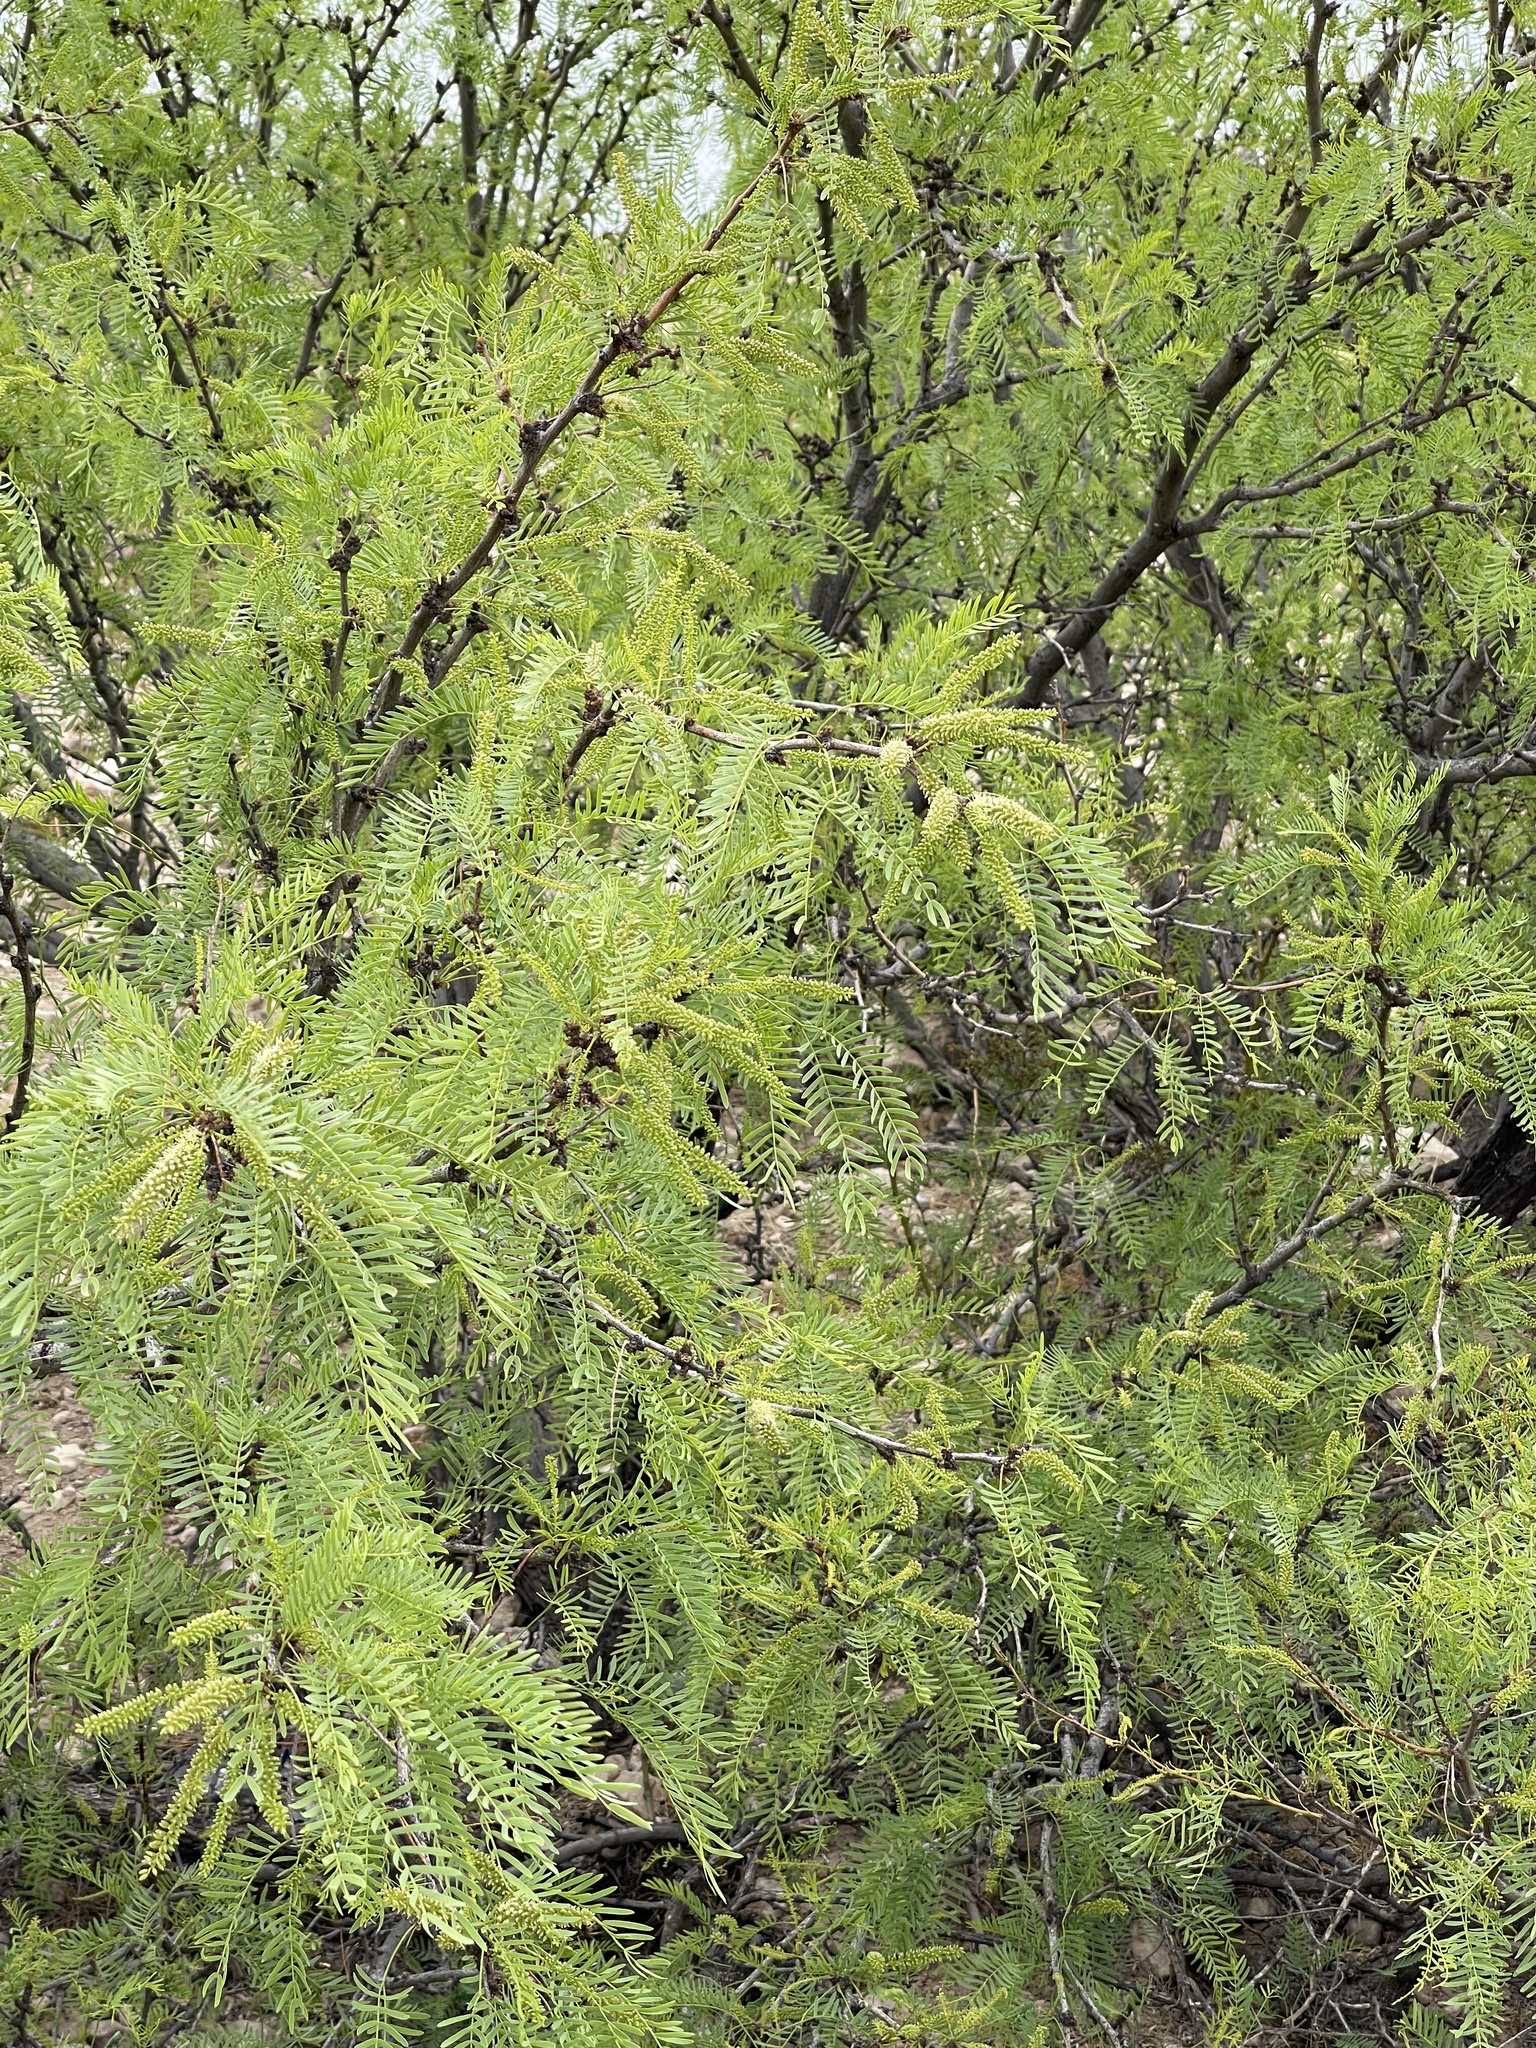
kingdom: Plantae
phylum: Tracheophyta
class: Magnoliopsida
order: Fabales
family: Fabaceae
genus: Prosopis
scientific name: Prosopis glandulosa
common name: Honey mesquite
